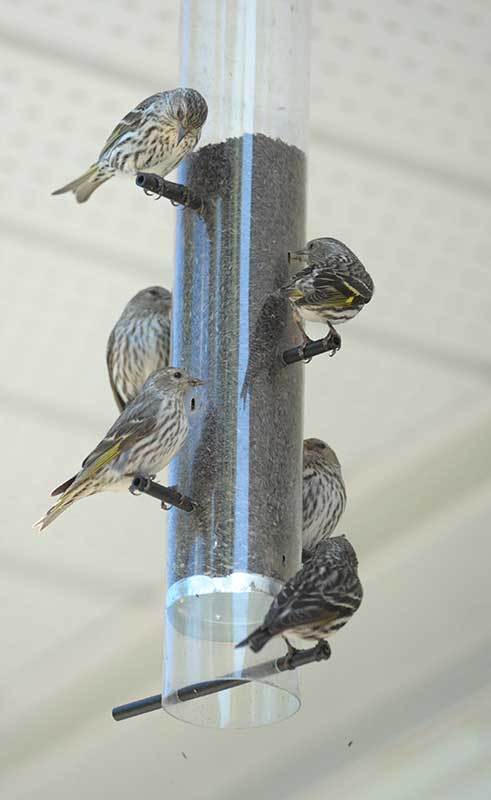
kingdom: Animalia
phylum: Chordata
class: Aves
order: Passeriformes
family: Fringillidae
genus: Spinus
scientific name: Spinus pinus
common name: Pine siskin
